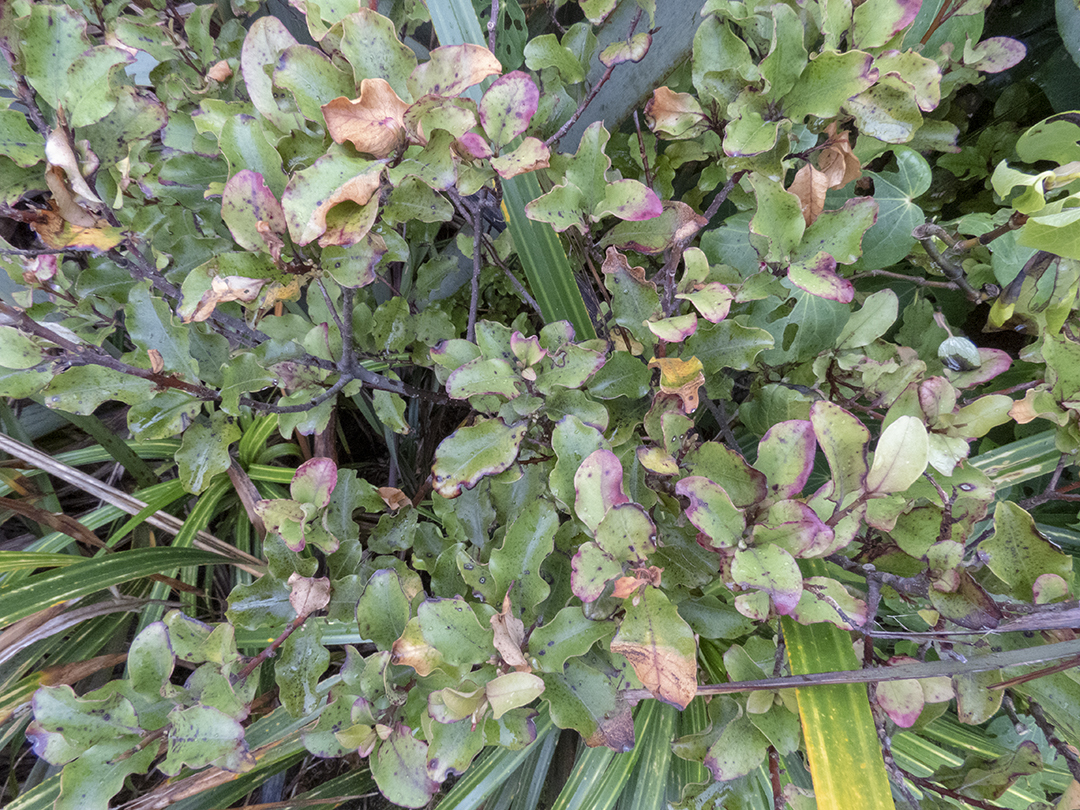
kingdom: Plantae
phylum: Tracheophyta
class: Magnoliopsida
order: Ericales
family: Primulaceae
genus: Myrsine
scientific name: Myrsine australis
